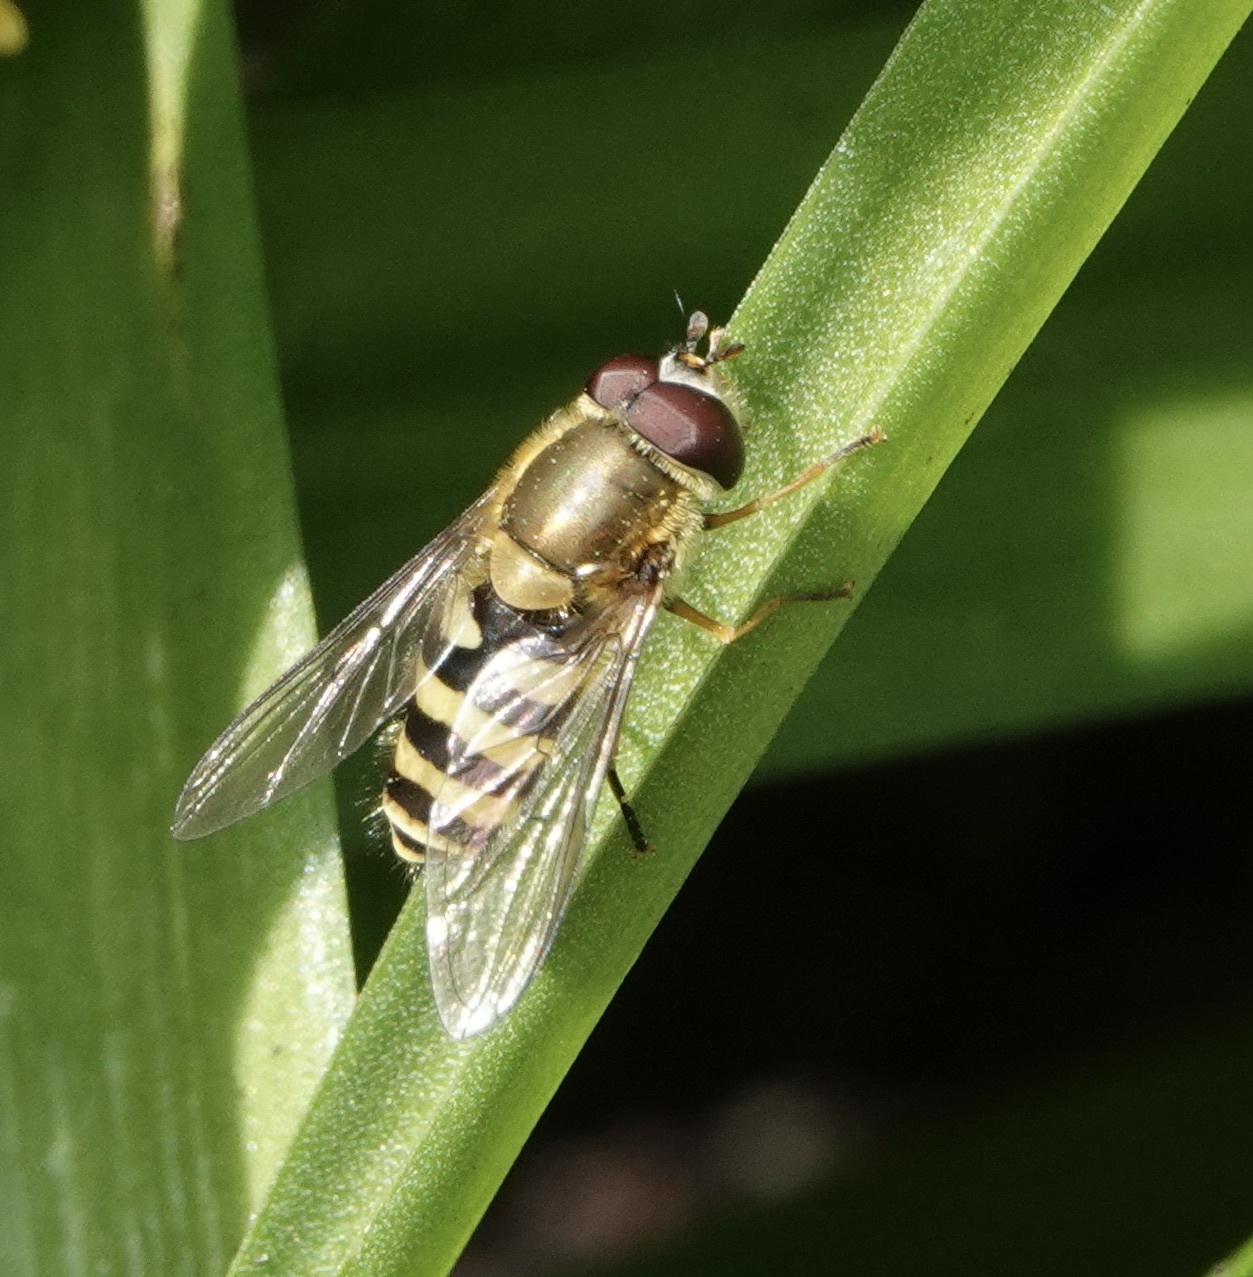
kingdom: Animalia
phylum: Arthropoda
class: Insecta
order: Diptera
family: Syrphidae
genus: Syrphus
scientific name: Syrphus
